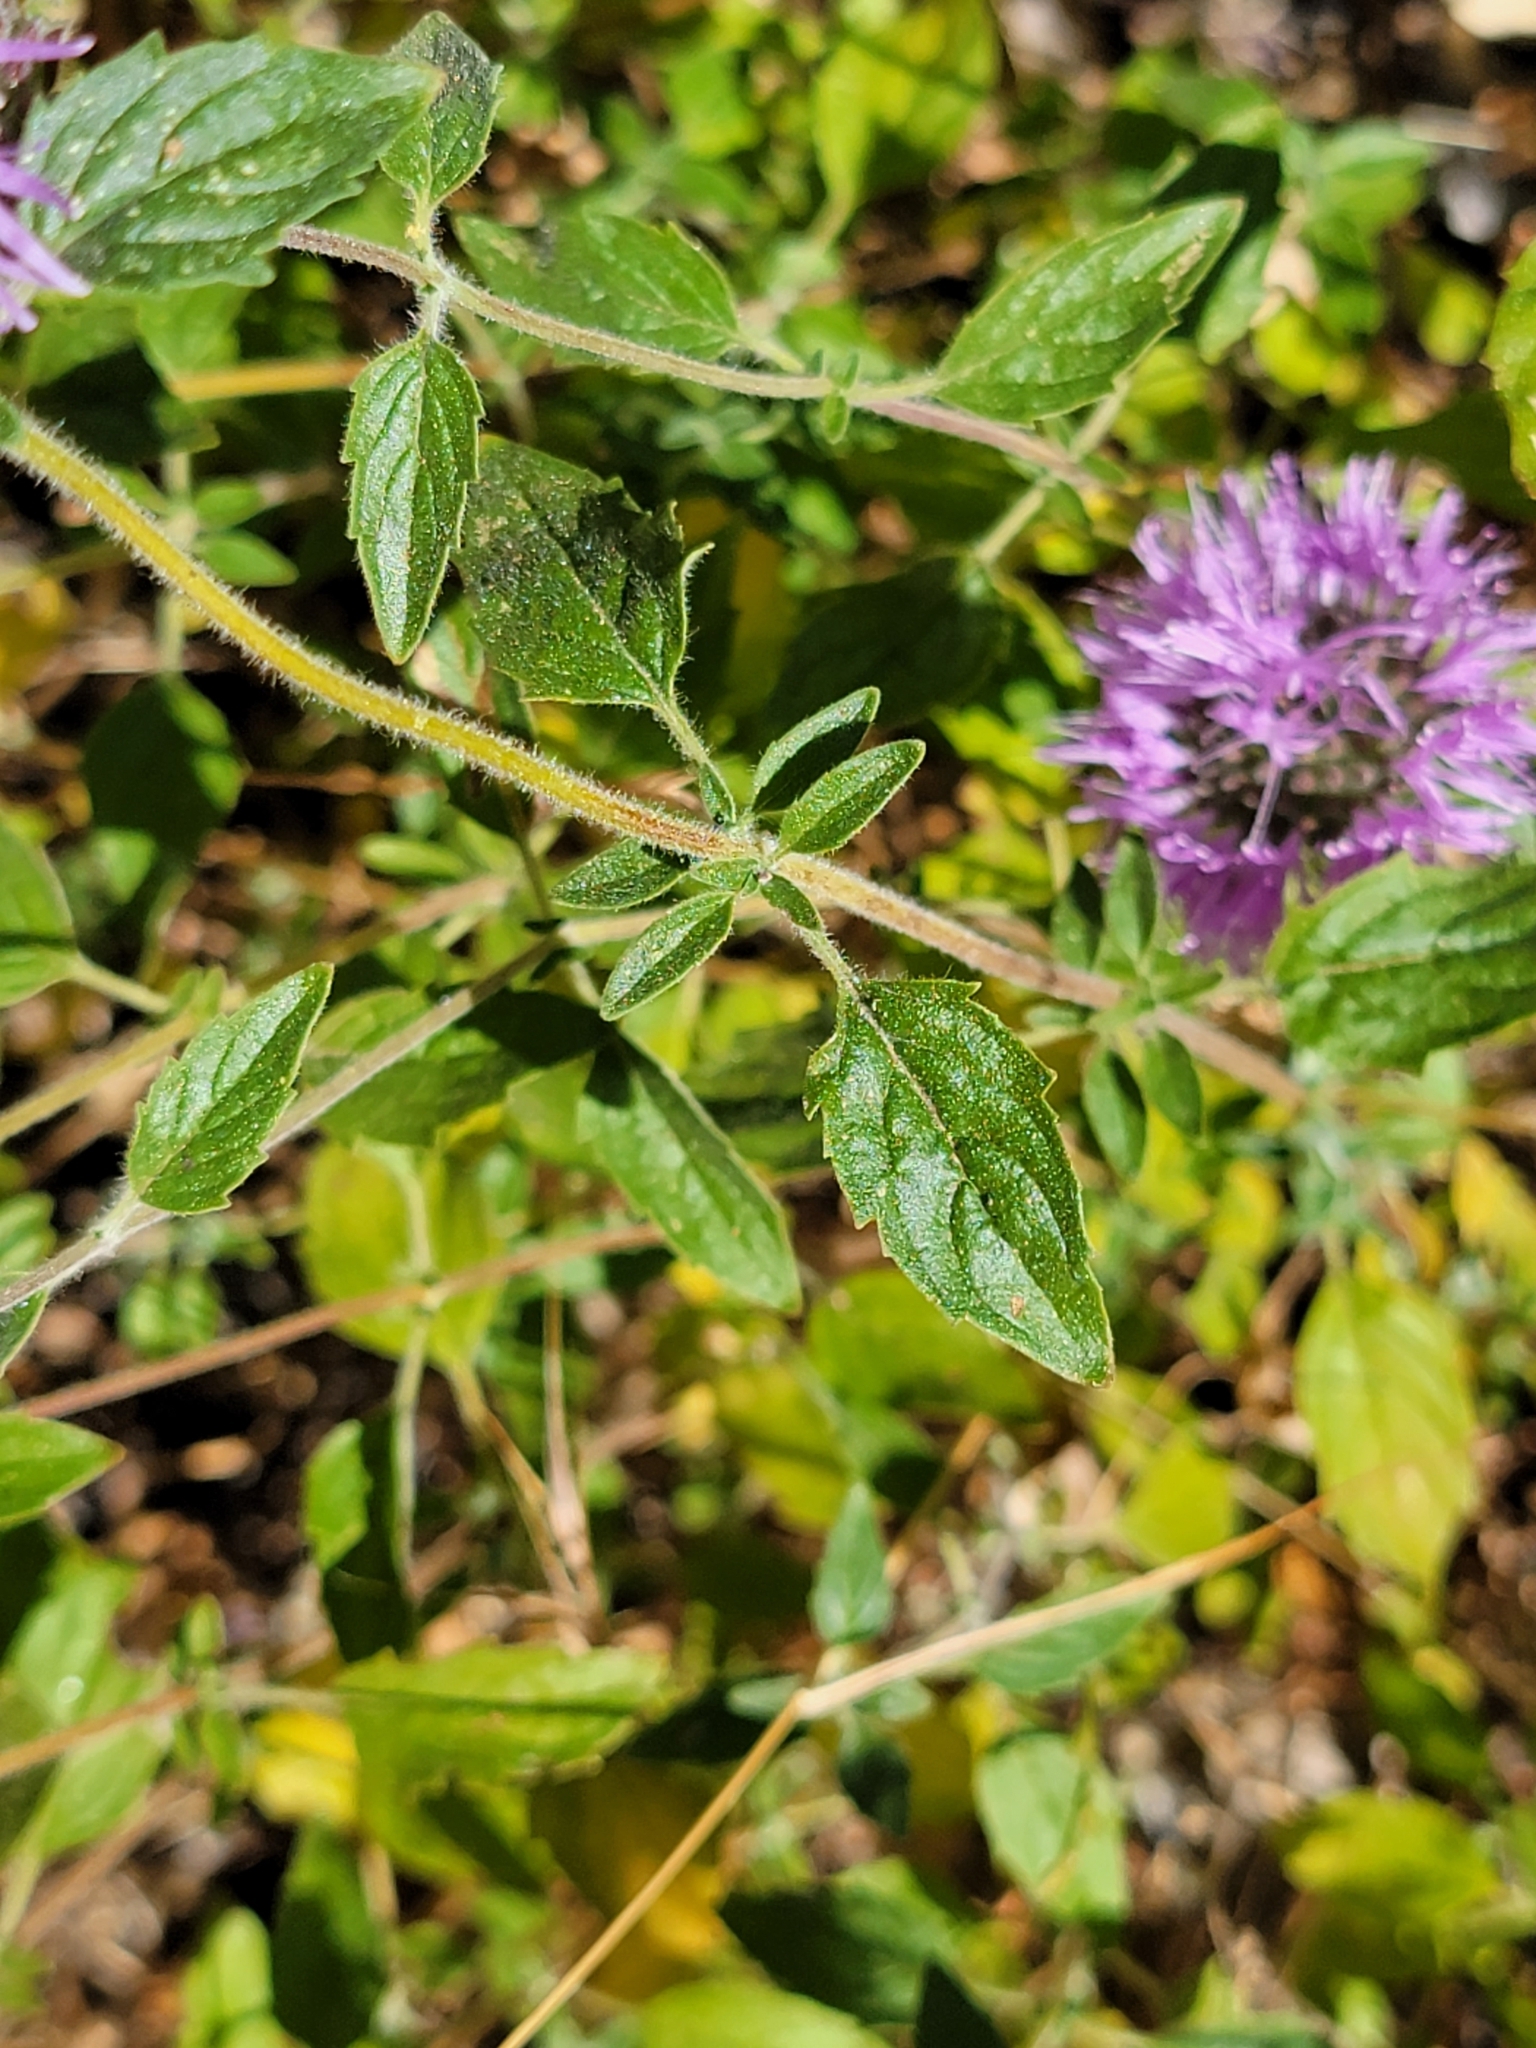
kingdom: Plantae
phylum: Tracheophyta
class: Magnoliopsida
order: Lamiales
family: Lamiaceae
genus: Monardella
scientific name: Monardella odoratissima
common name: Pacific monardella
